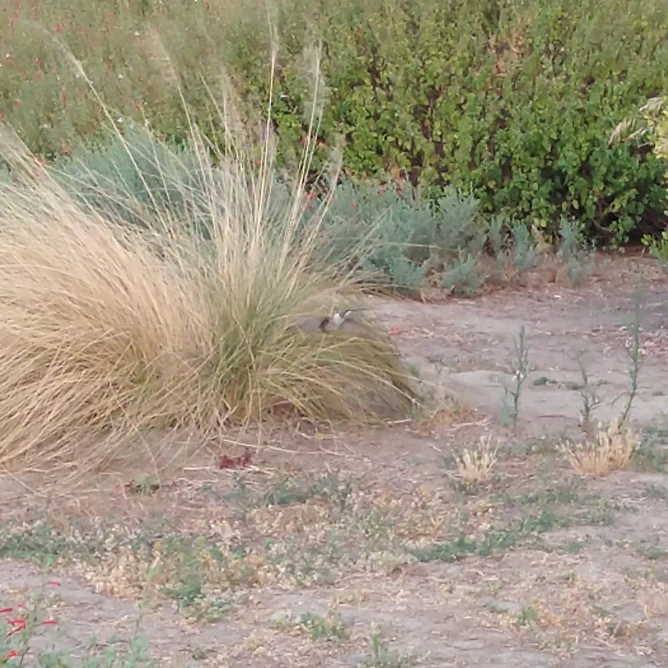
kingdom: Animalia
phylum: Chordata
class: Aves
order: Apodiformes
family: Trochilidae
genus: Archilochus
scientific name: Archilochus alexandri
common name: Black-chinned hummingbird
